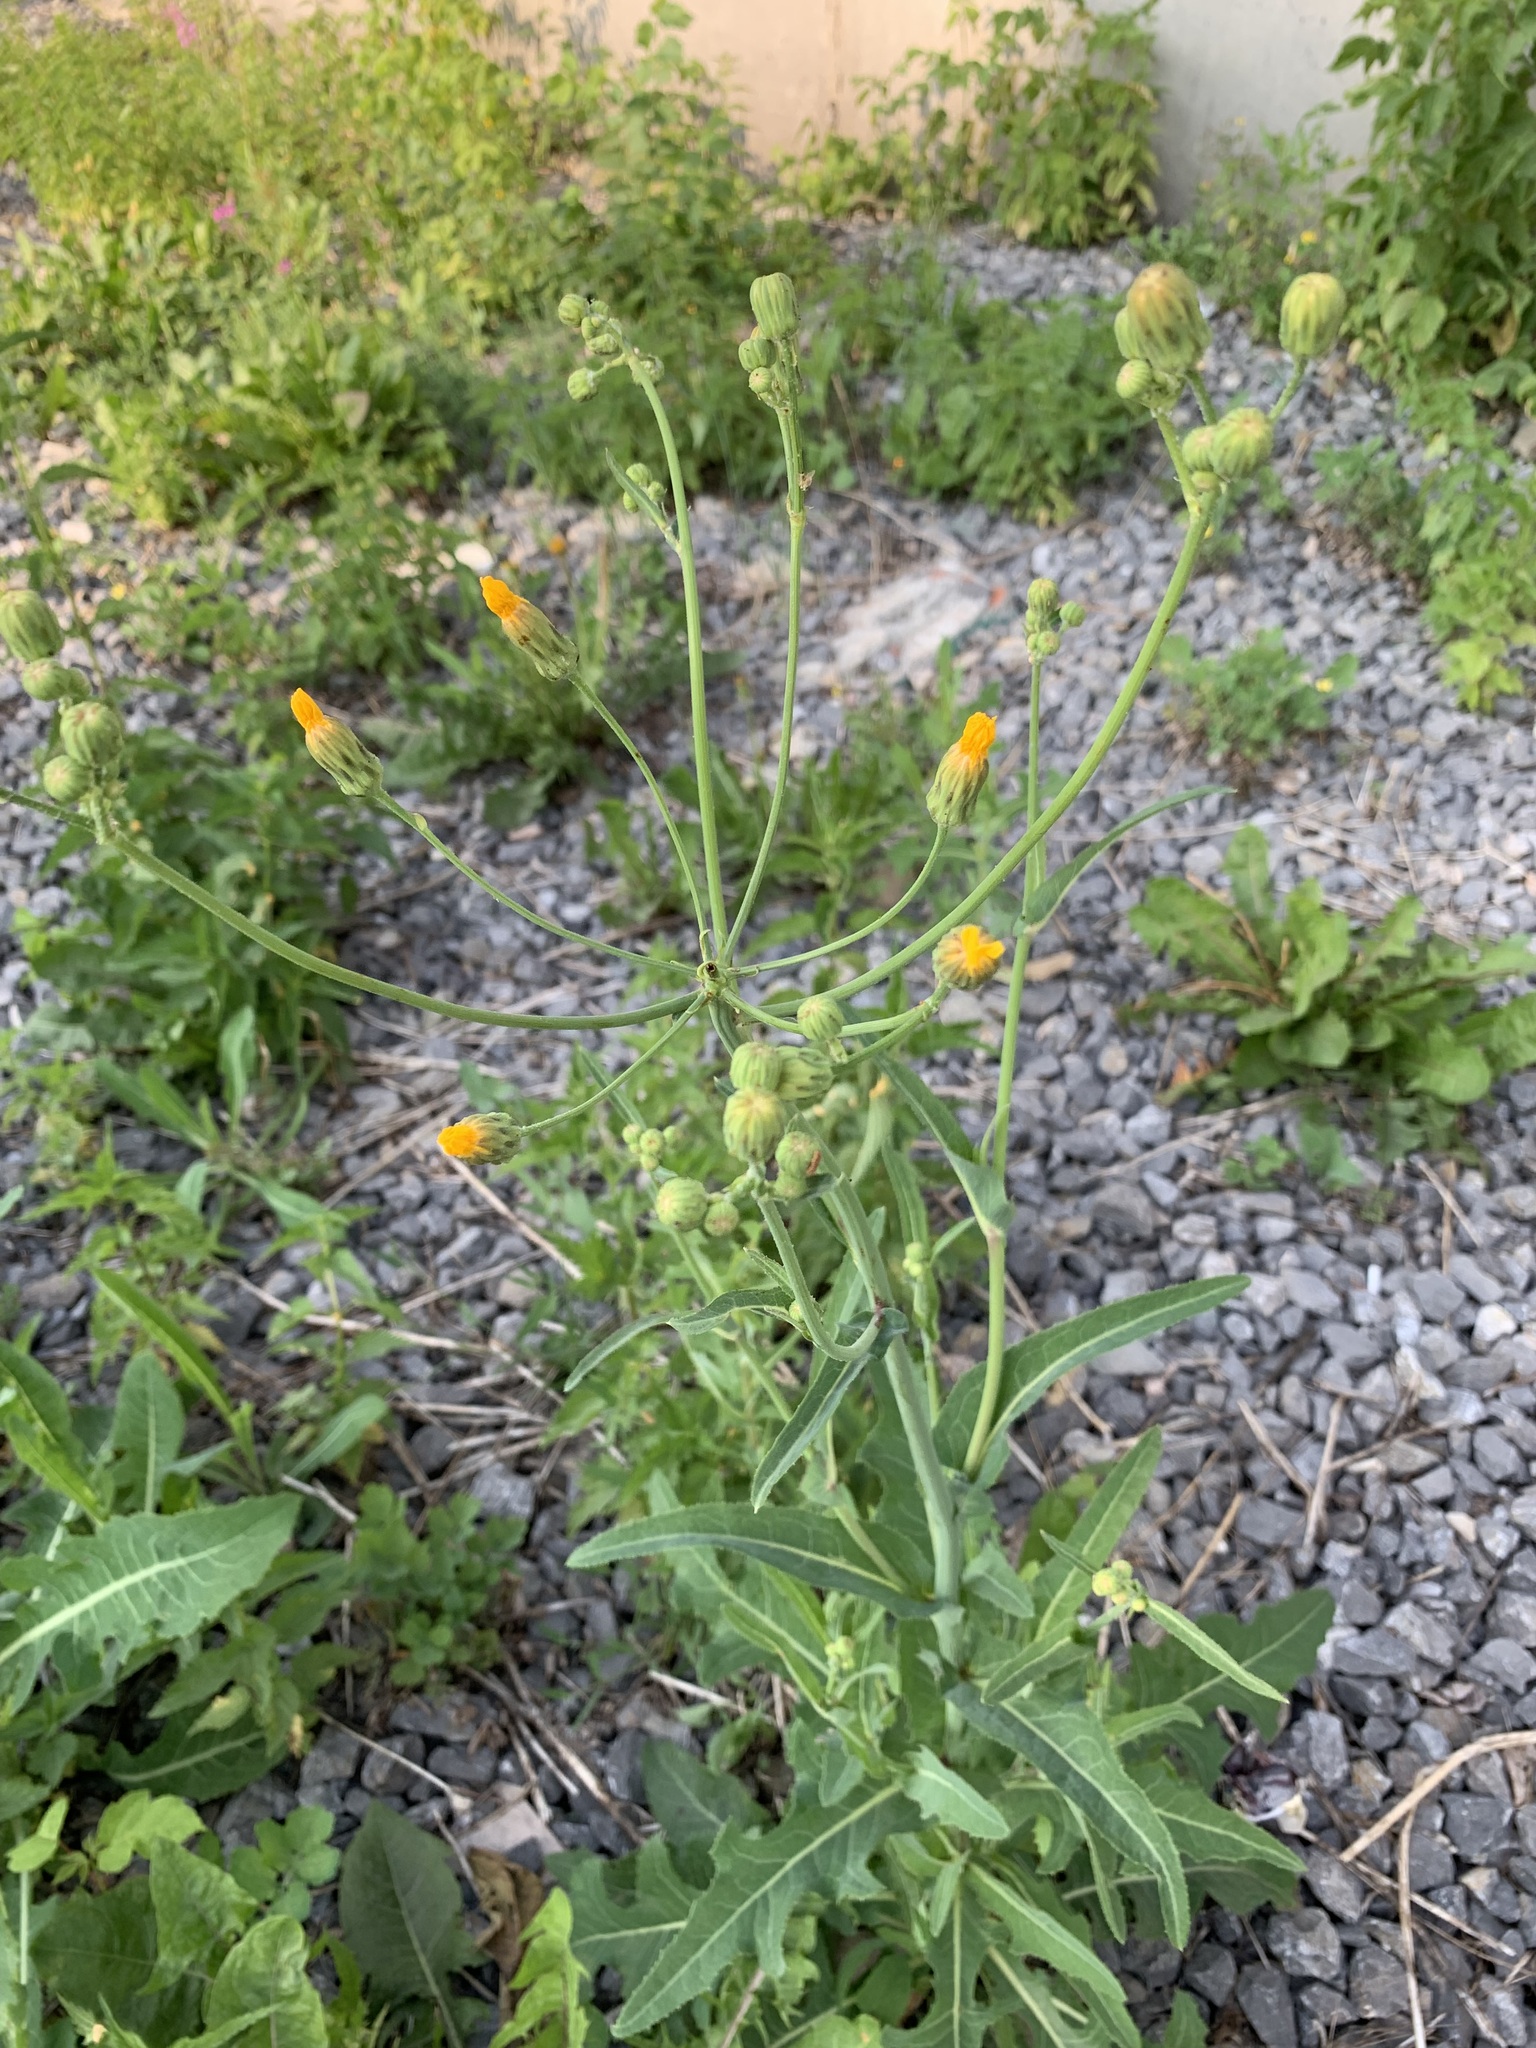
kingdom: Plantae
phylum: Tracheophyta
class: Magnoliopsida
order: Asterales
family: Asteraceae
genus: Sonchus
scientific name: Sonchus arvensis
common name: Perennial sow-thistle
